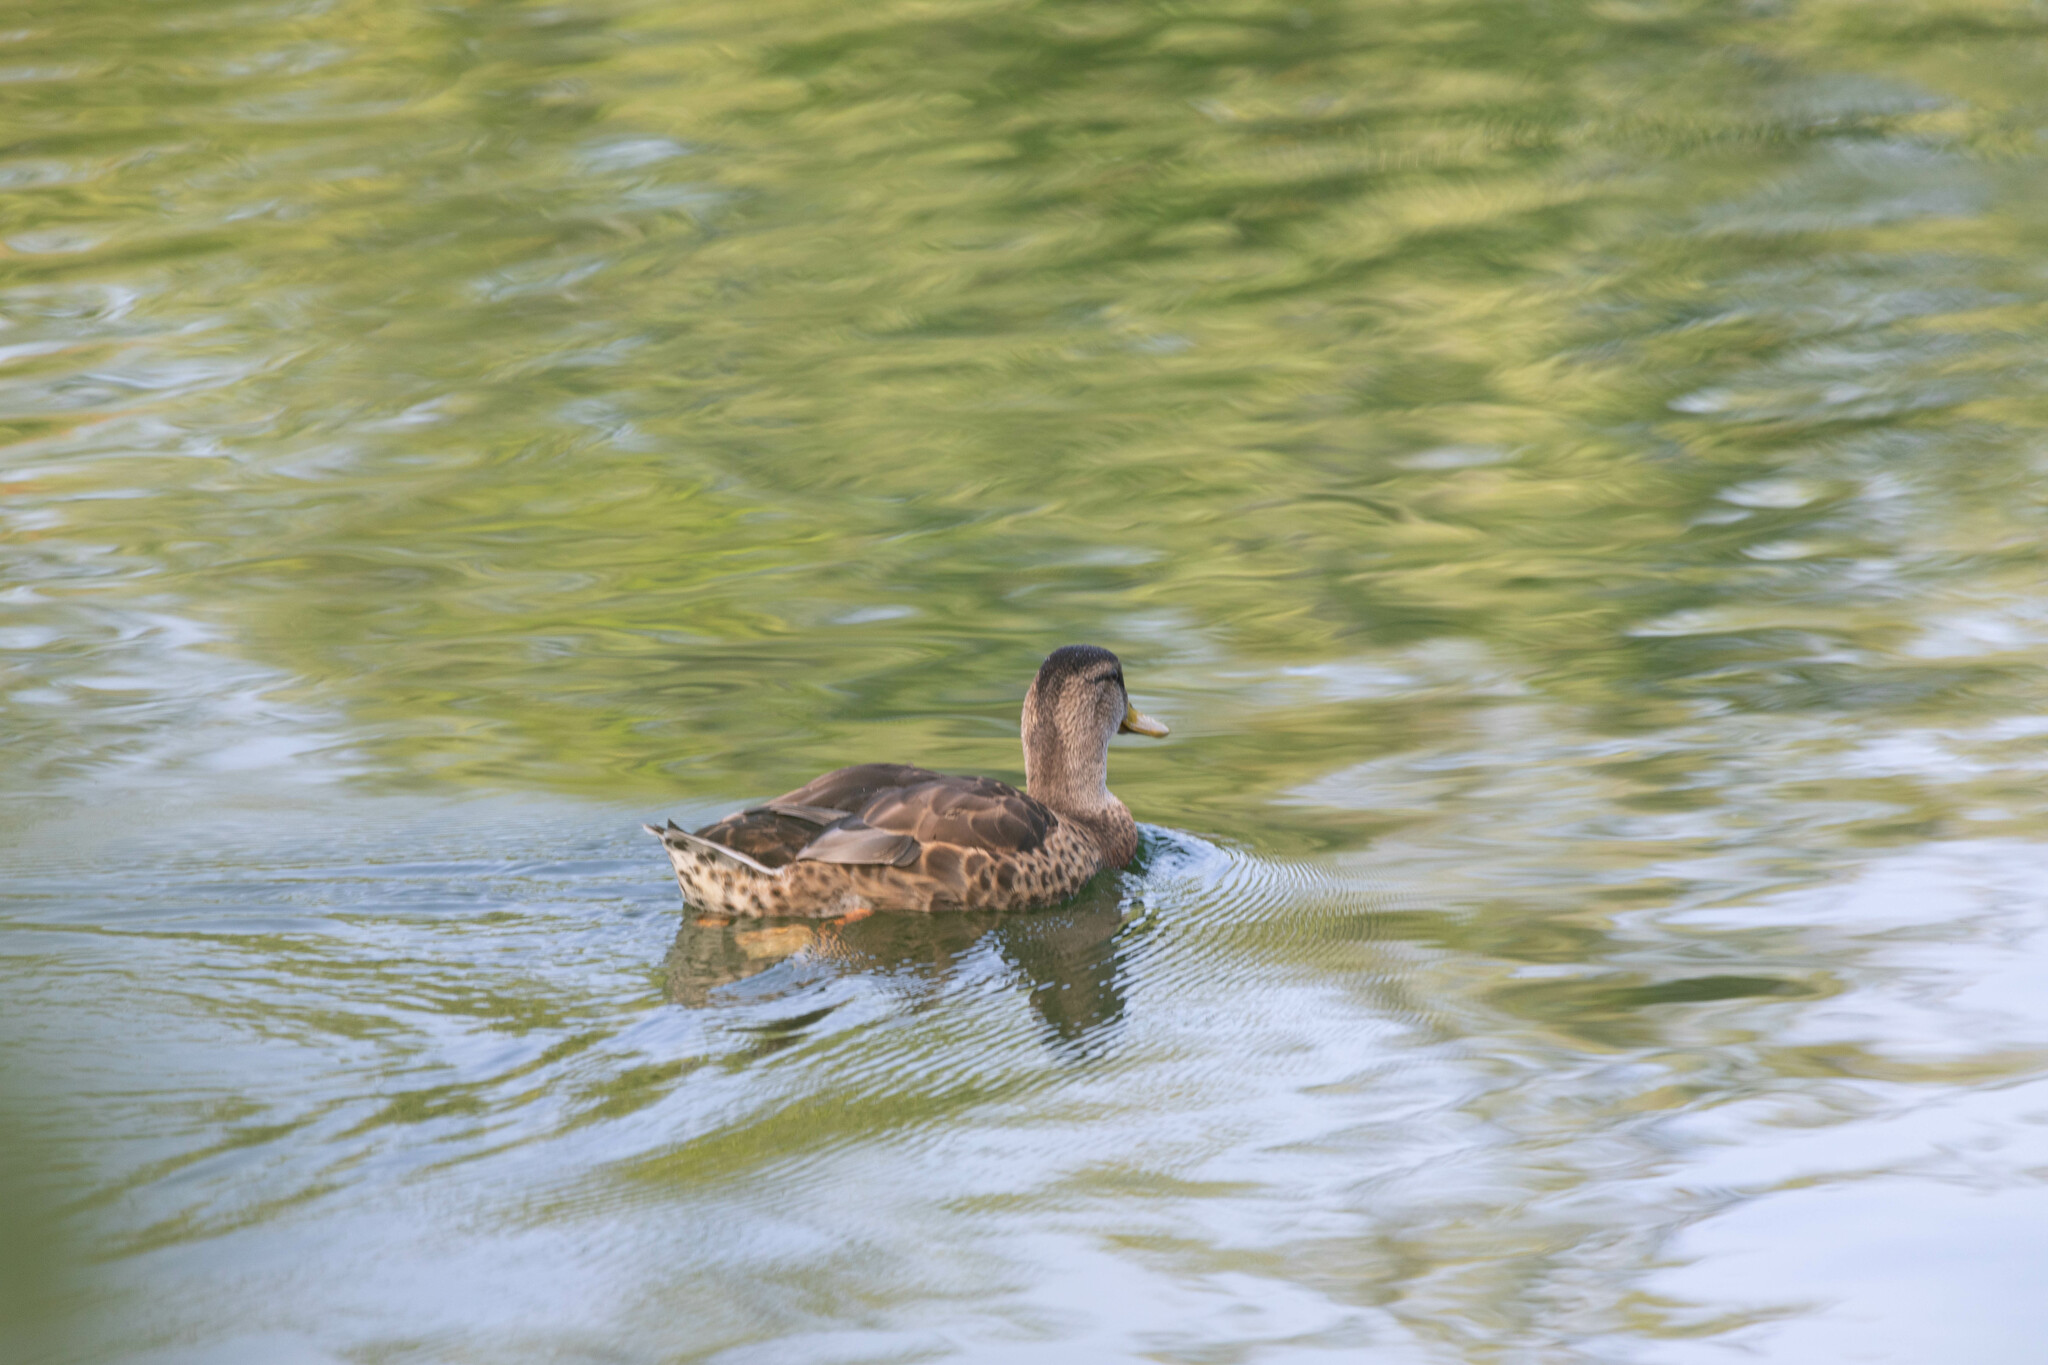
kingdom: Animalia
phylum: Chordata
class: Aves
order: Anseriformes
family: Anatidae
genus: Anas
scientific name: Anas platyrhynchos
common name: Mallard
